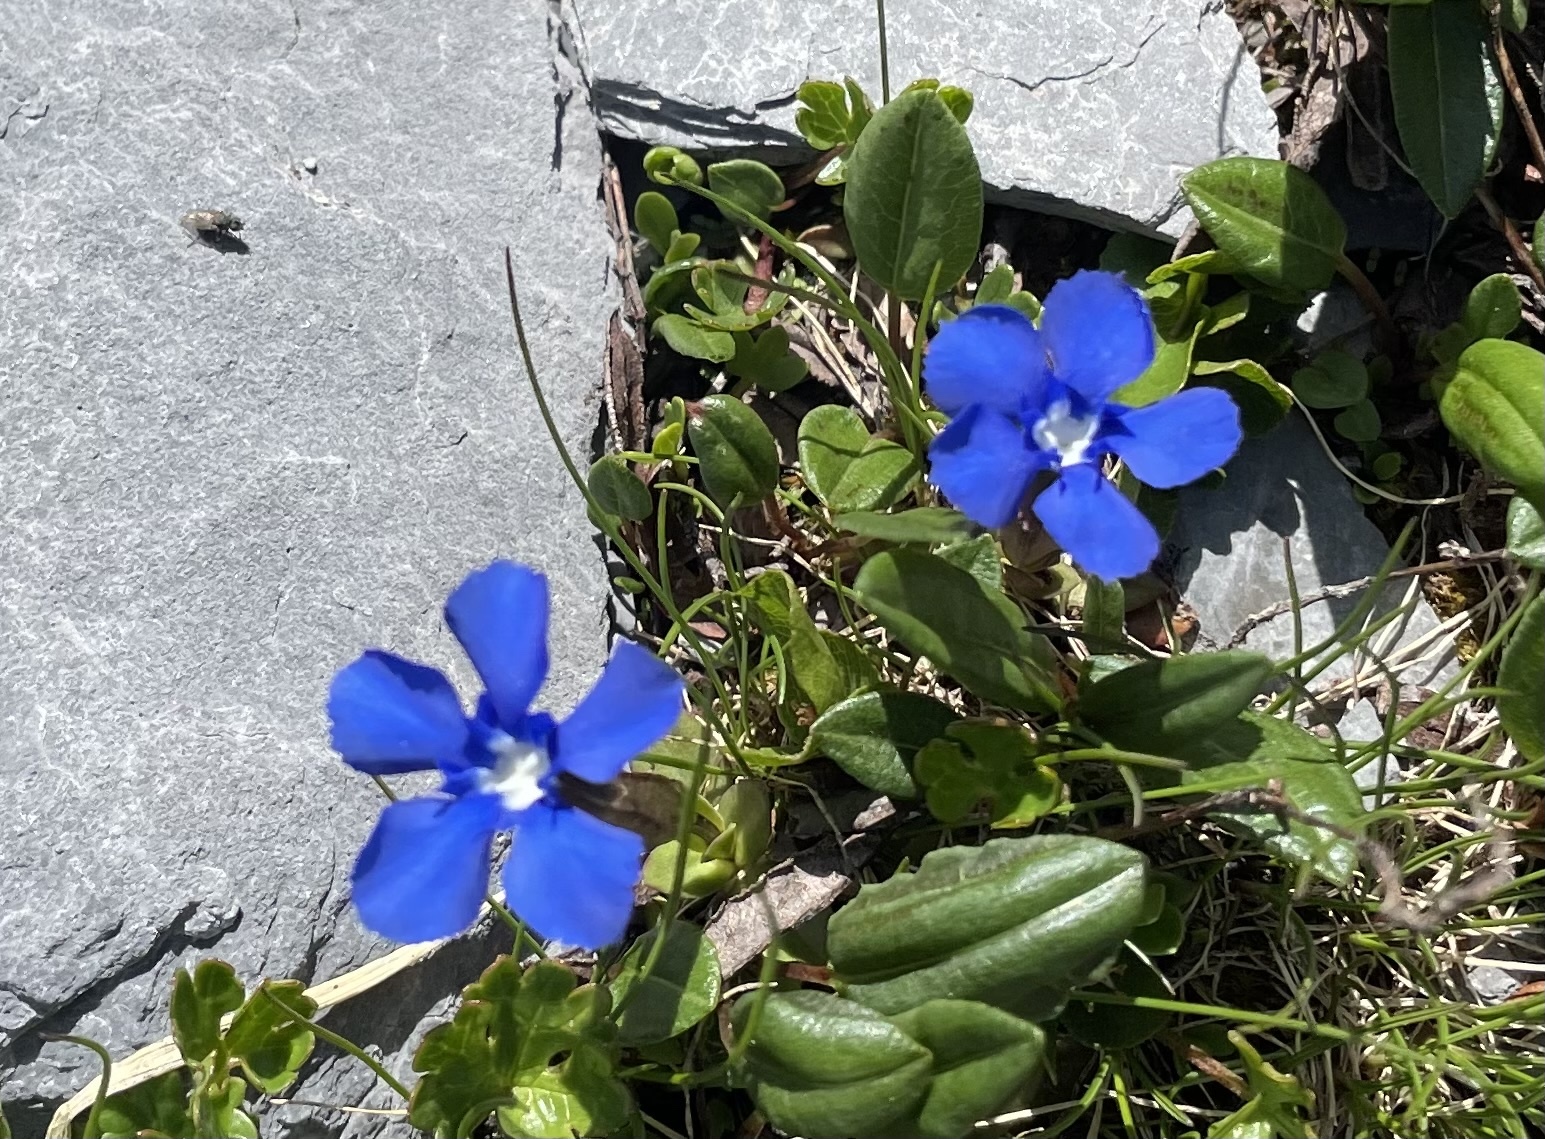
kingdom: Plantae
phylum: Tracheophyta
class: Magnoliopsida
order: Gentianales
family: Gentianaceae
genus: Gentiana
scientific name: Gentiana verna
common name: Spring gentian
